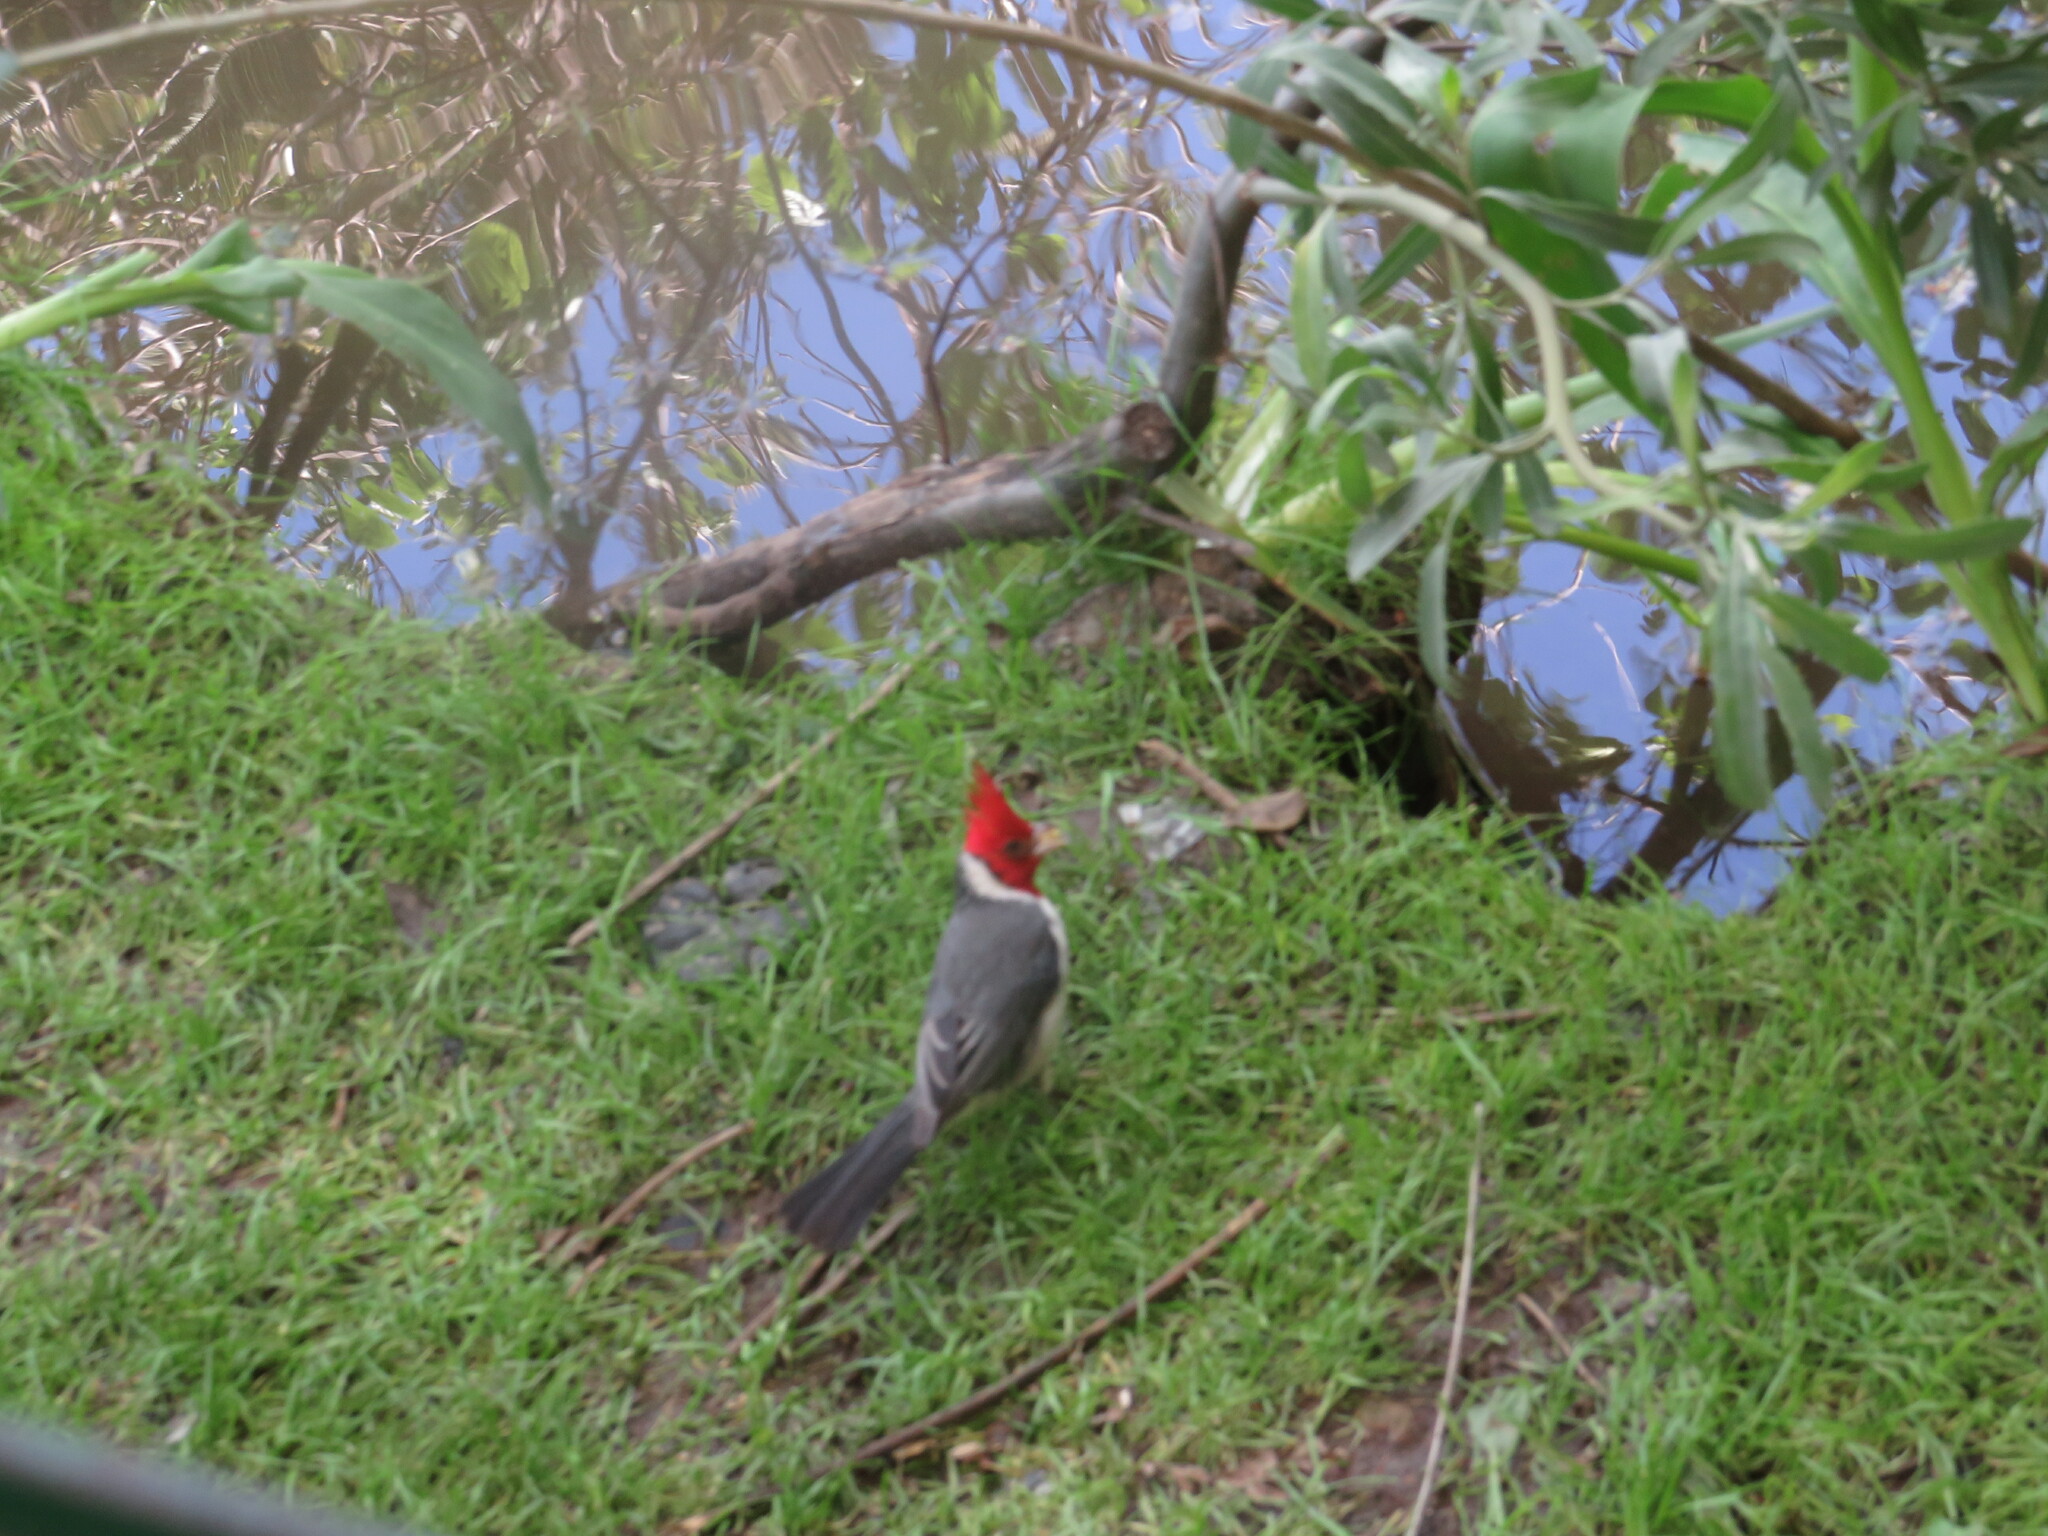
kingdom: Animalia
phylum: Chordata
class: Aves
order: Passeriformes
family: Thraupidae
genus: Paroaria
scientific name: Paroaria coronata
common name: Red-crested cardinal
